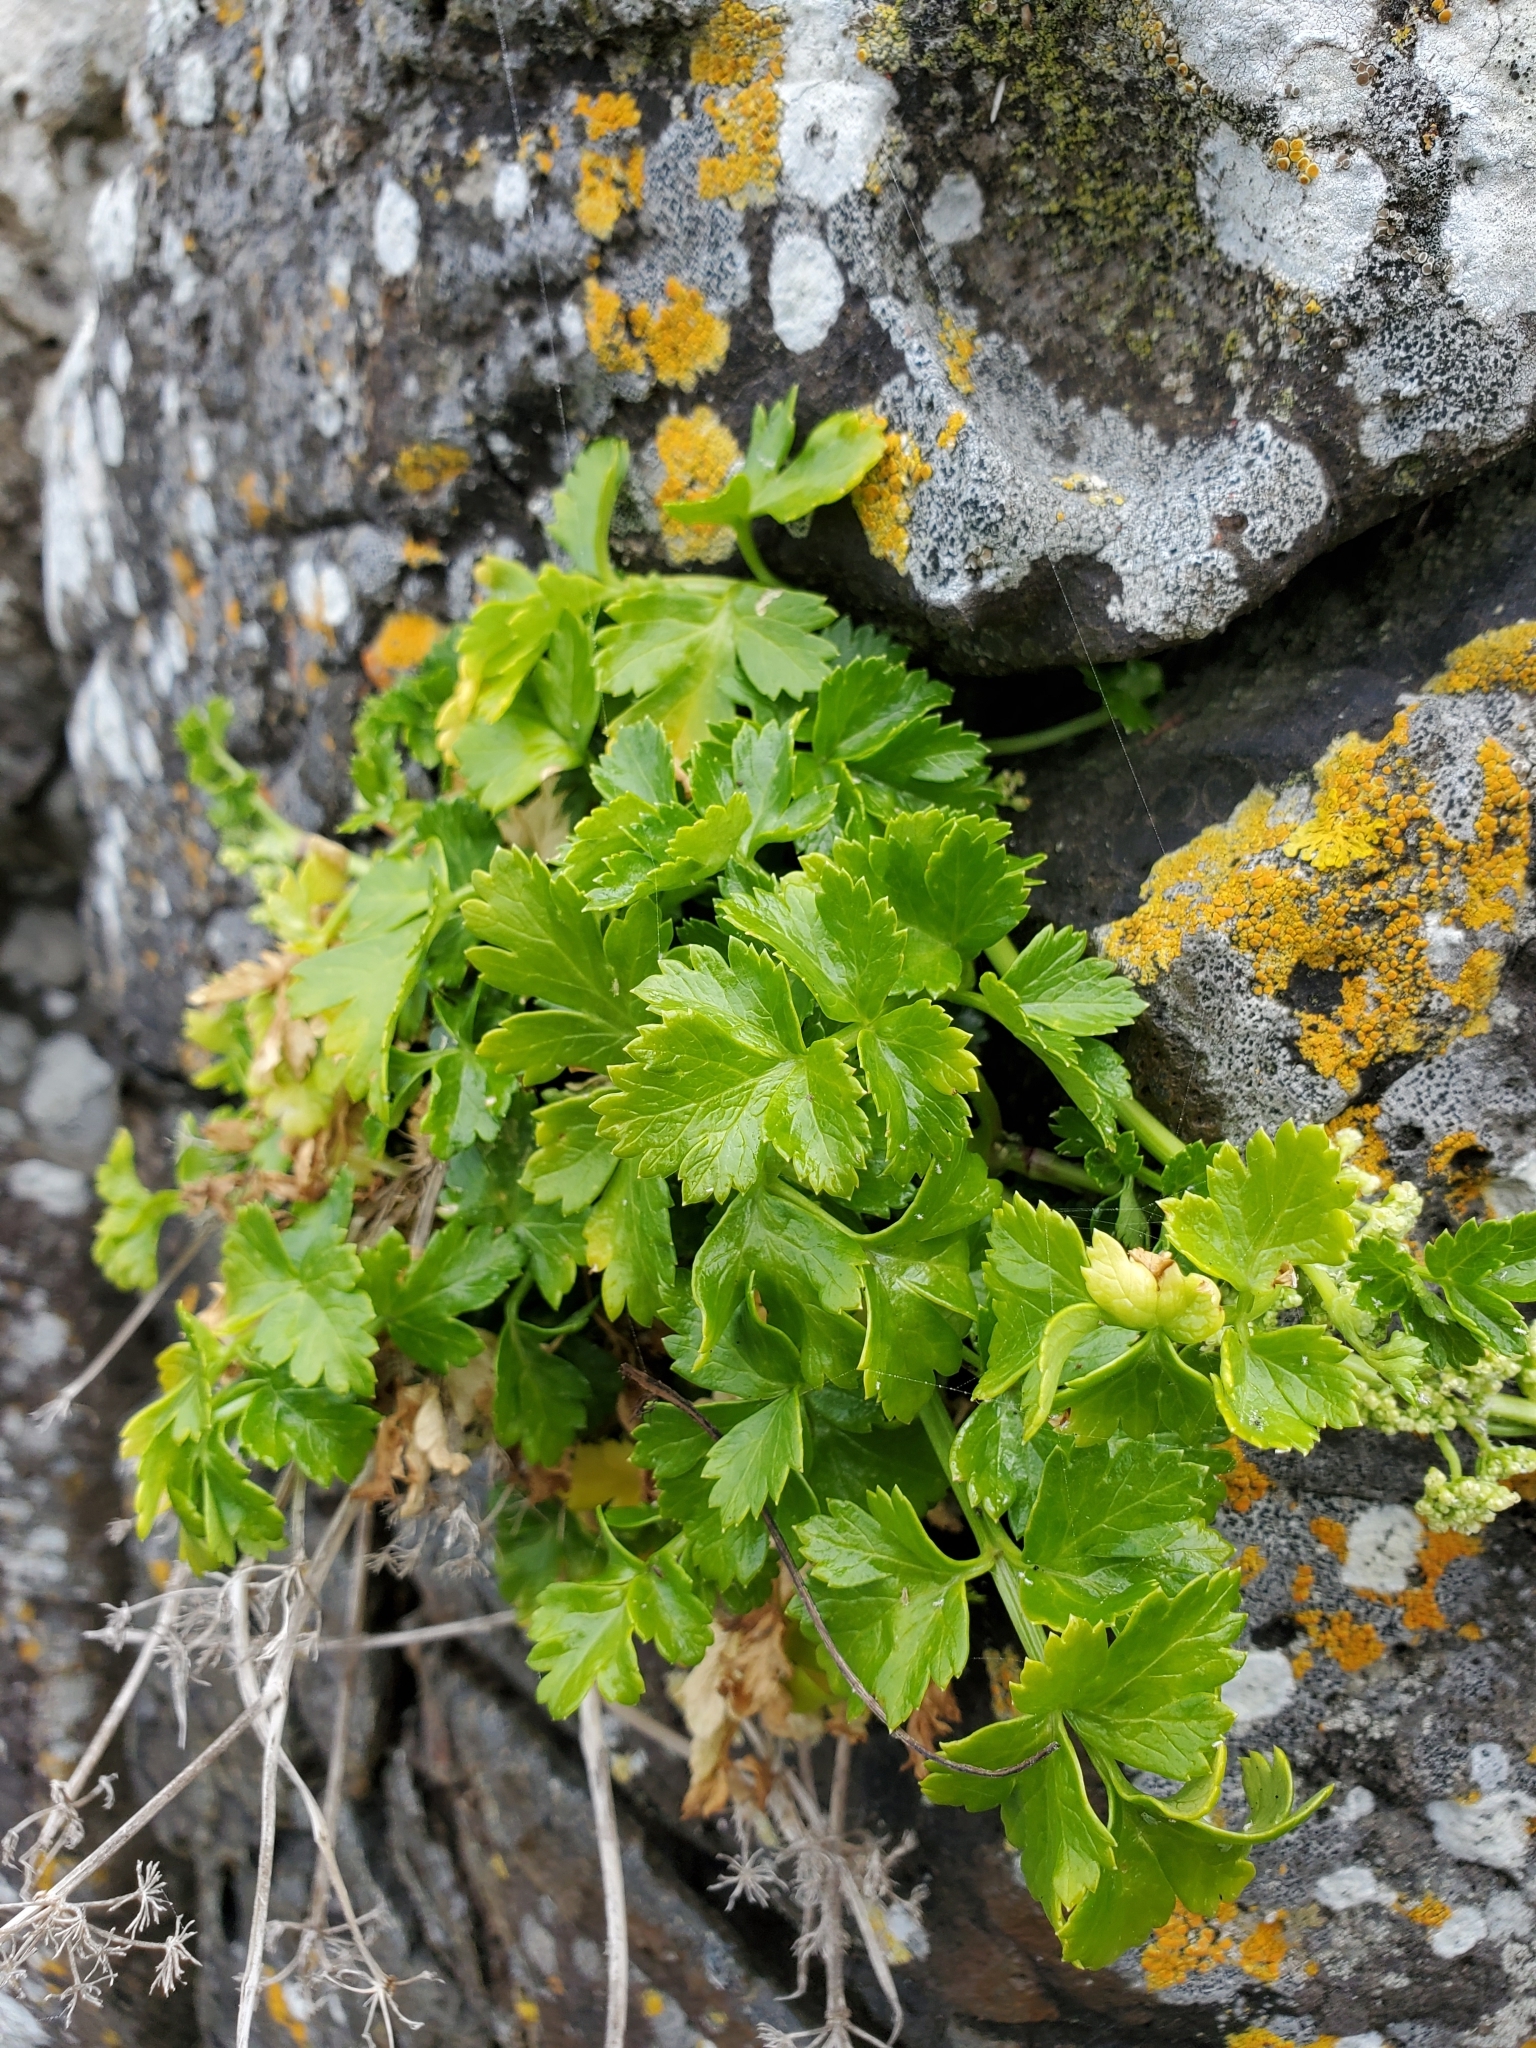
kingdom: Plantae
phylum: Tracheophyta
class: Magnoliopsida
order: Apiales
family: Apiaceae
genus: Apium
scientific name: Apium prostratum
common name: Prostrate marshwort
